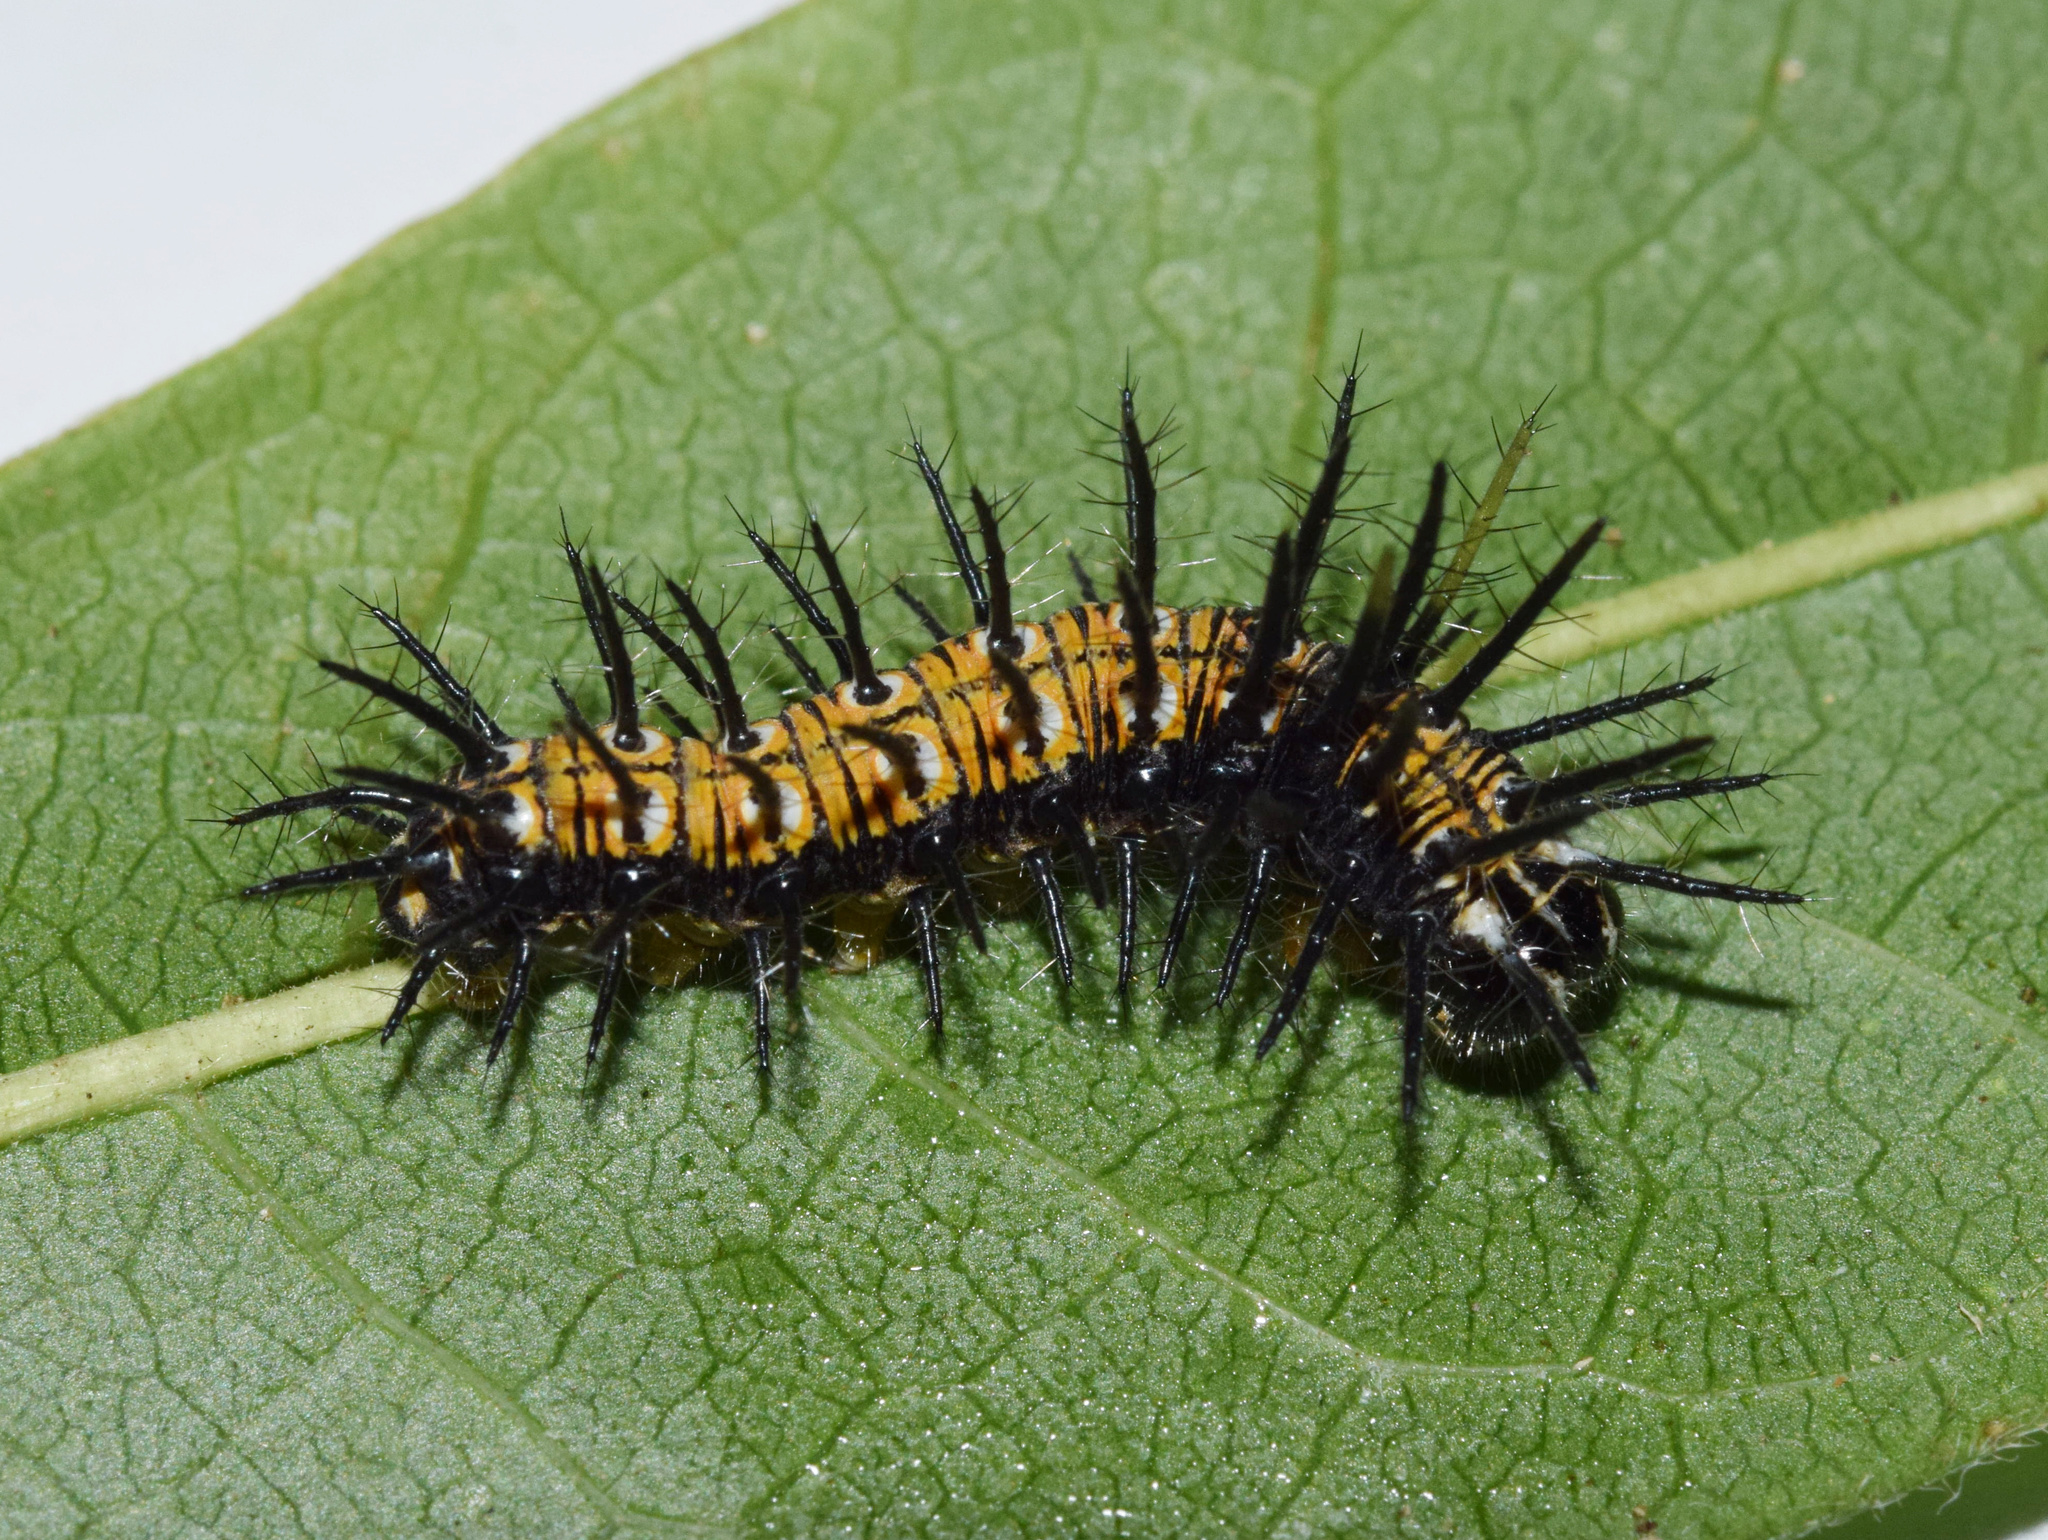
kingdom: Animalia
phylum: Arthropoda
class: Insecta
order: Lepidoptera
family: Nymphalidae
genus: Rubraea
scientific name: Rubraea
